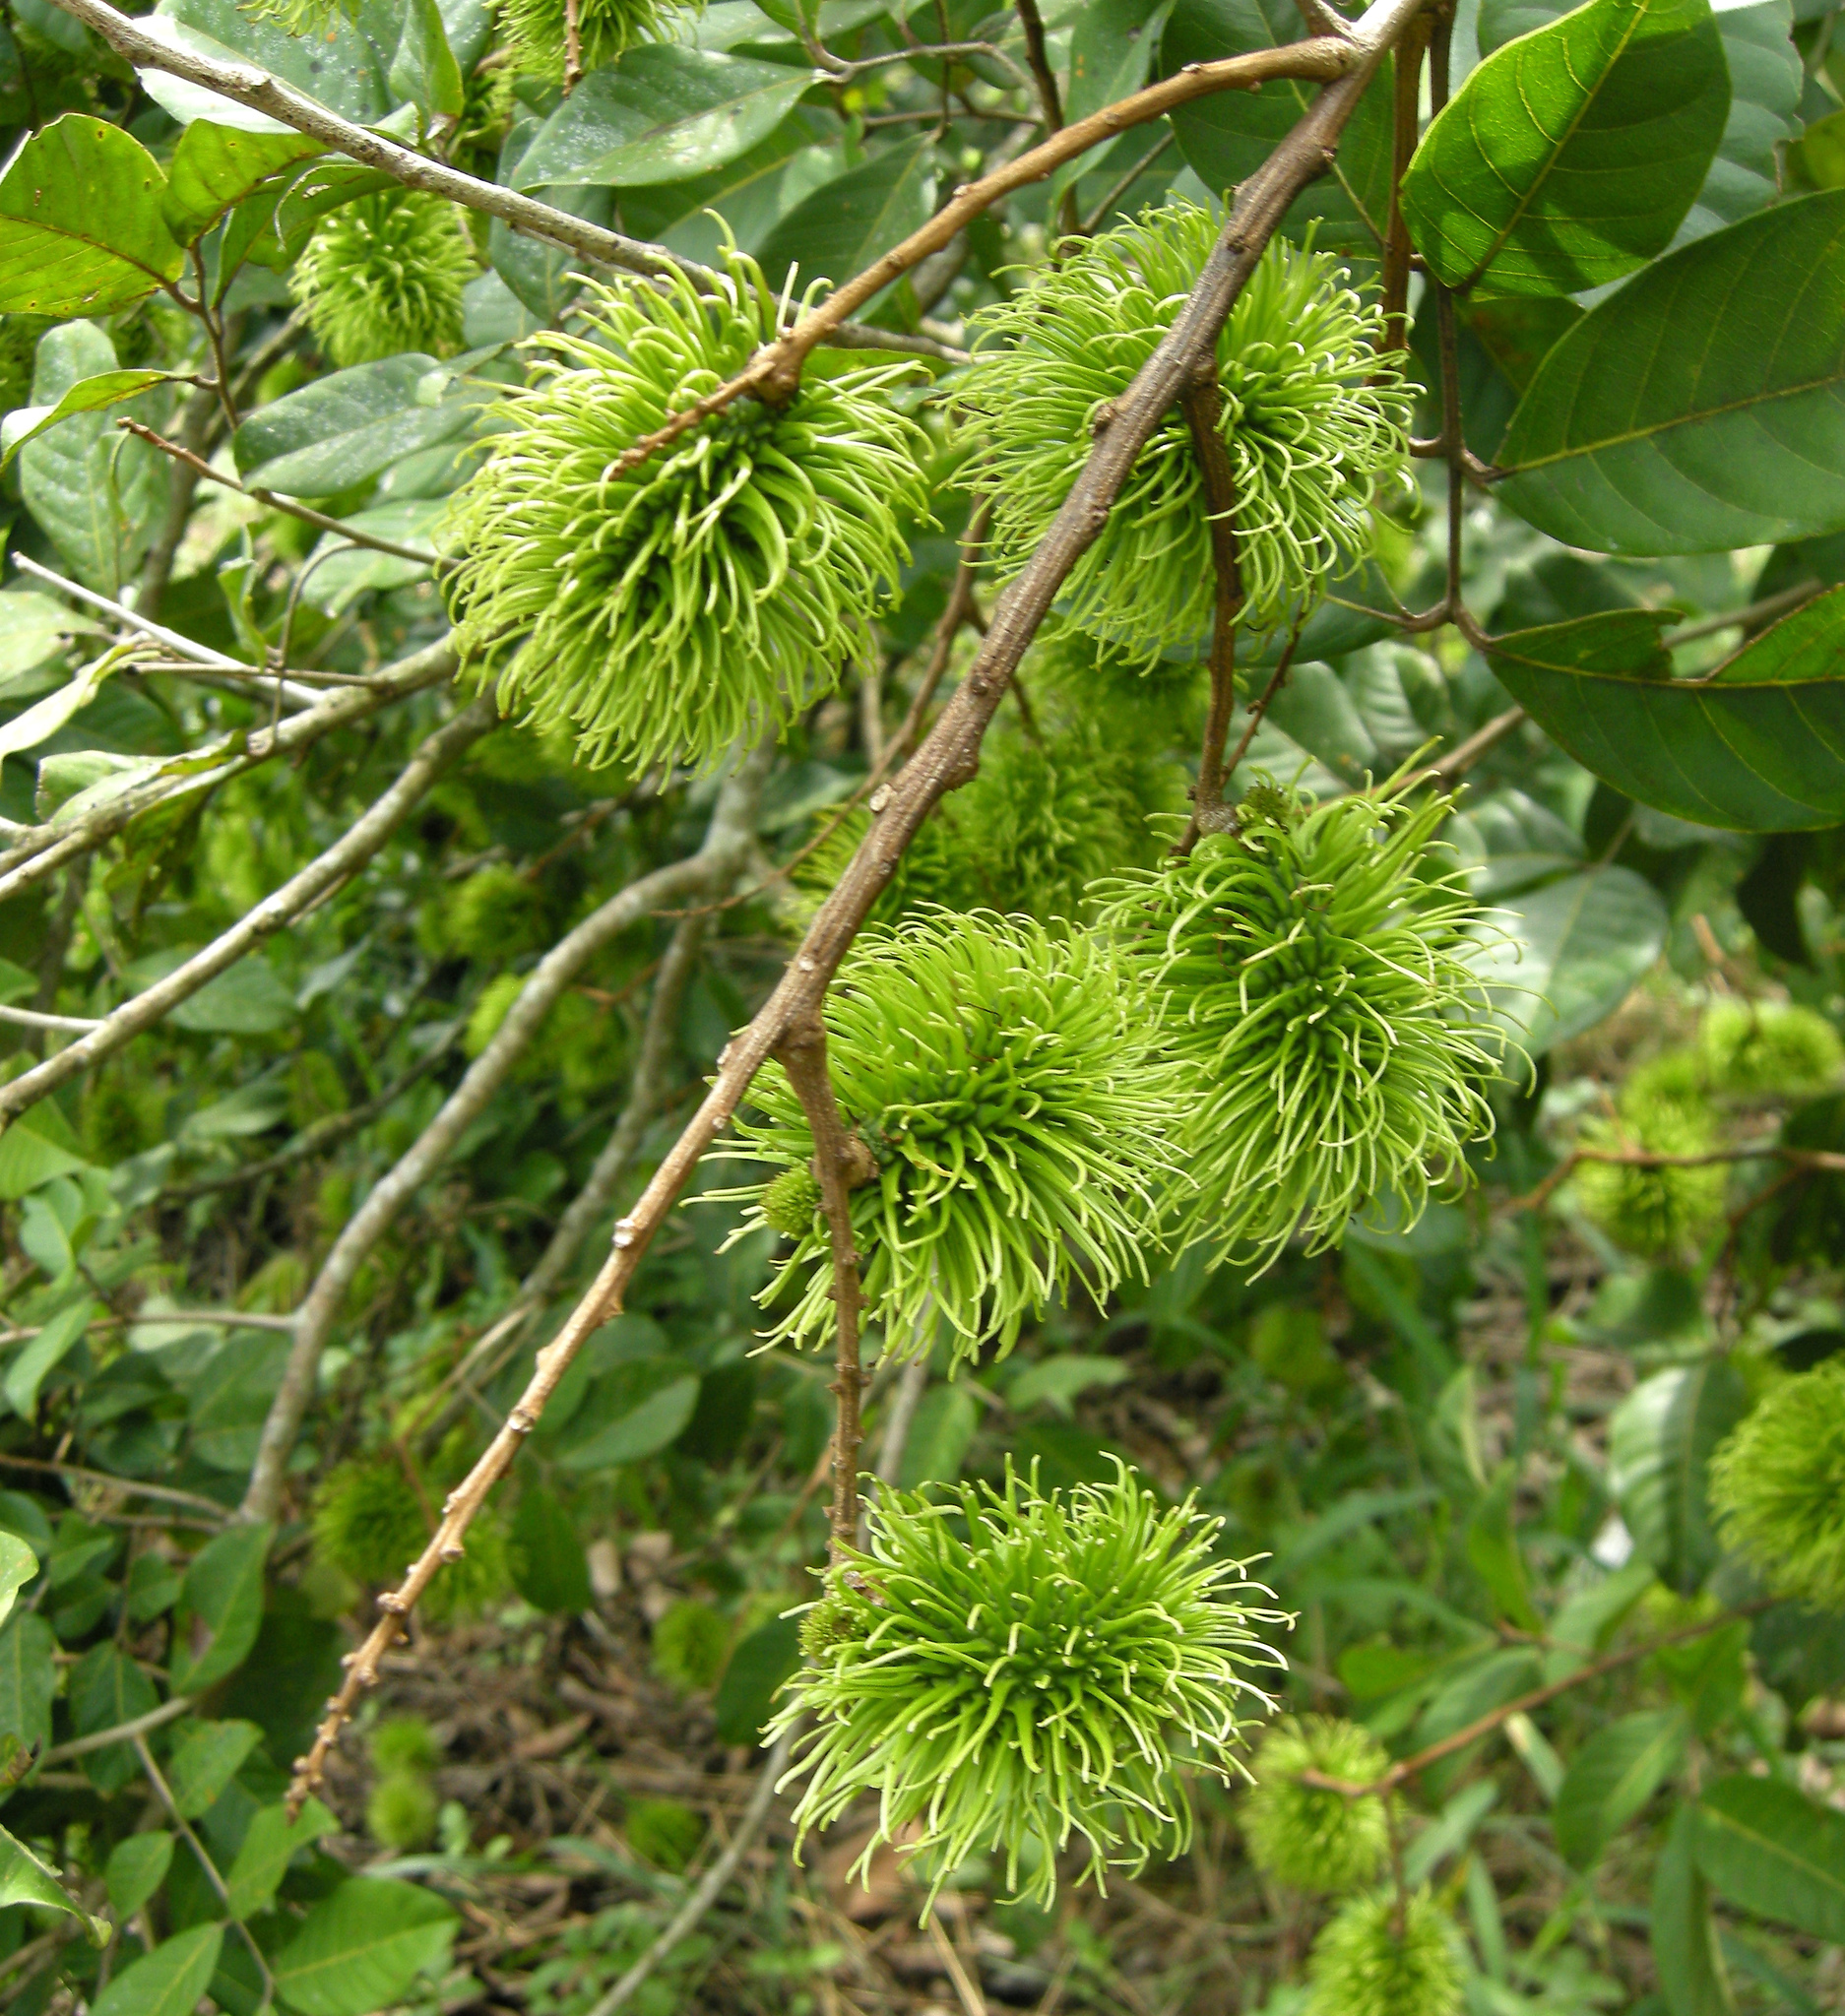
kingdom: Plantae
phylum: Tracheophyta
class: Magnoliopsida
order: Sapindales
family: Sapindaceae
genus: Nephelium
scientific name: Nephelium lappaceum
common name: Rambutan
